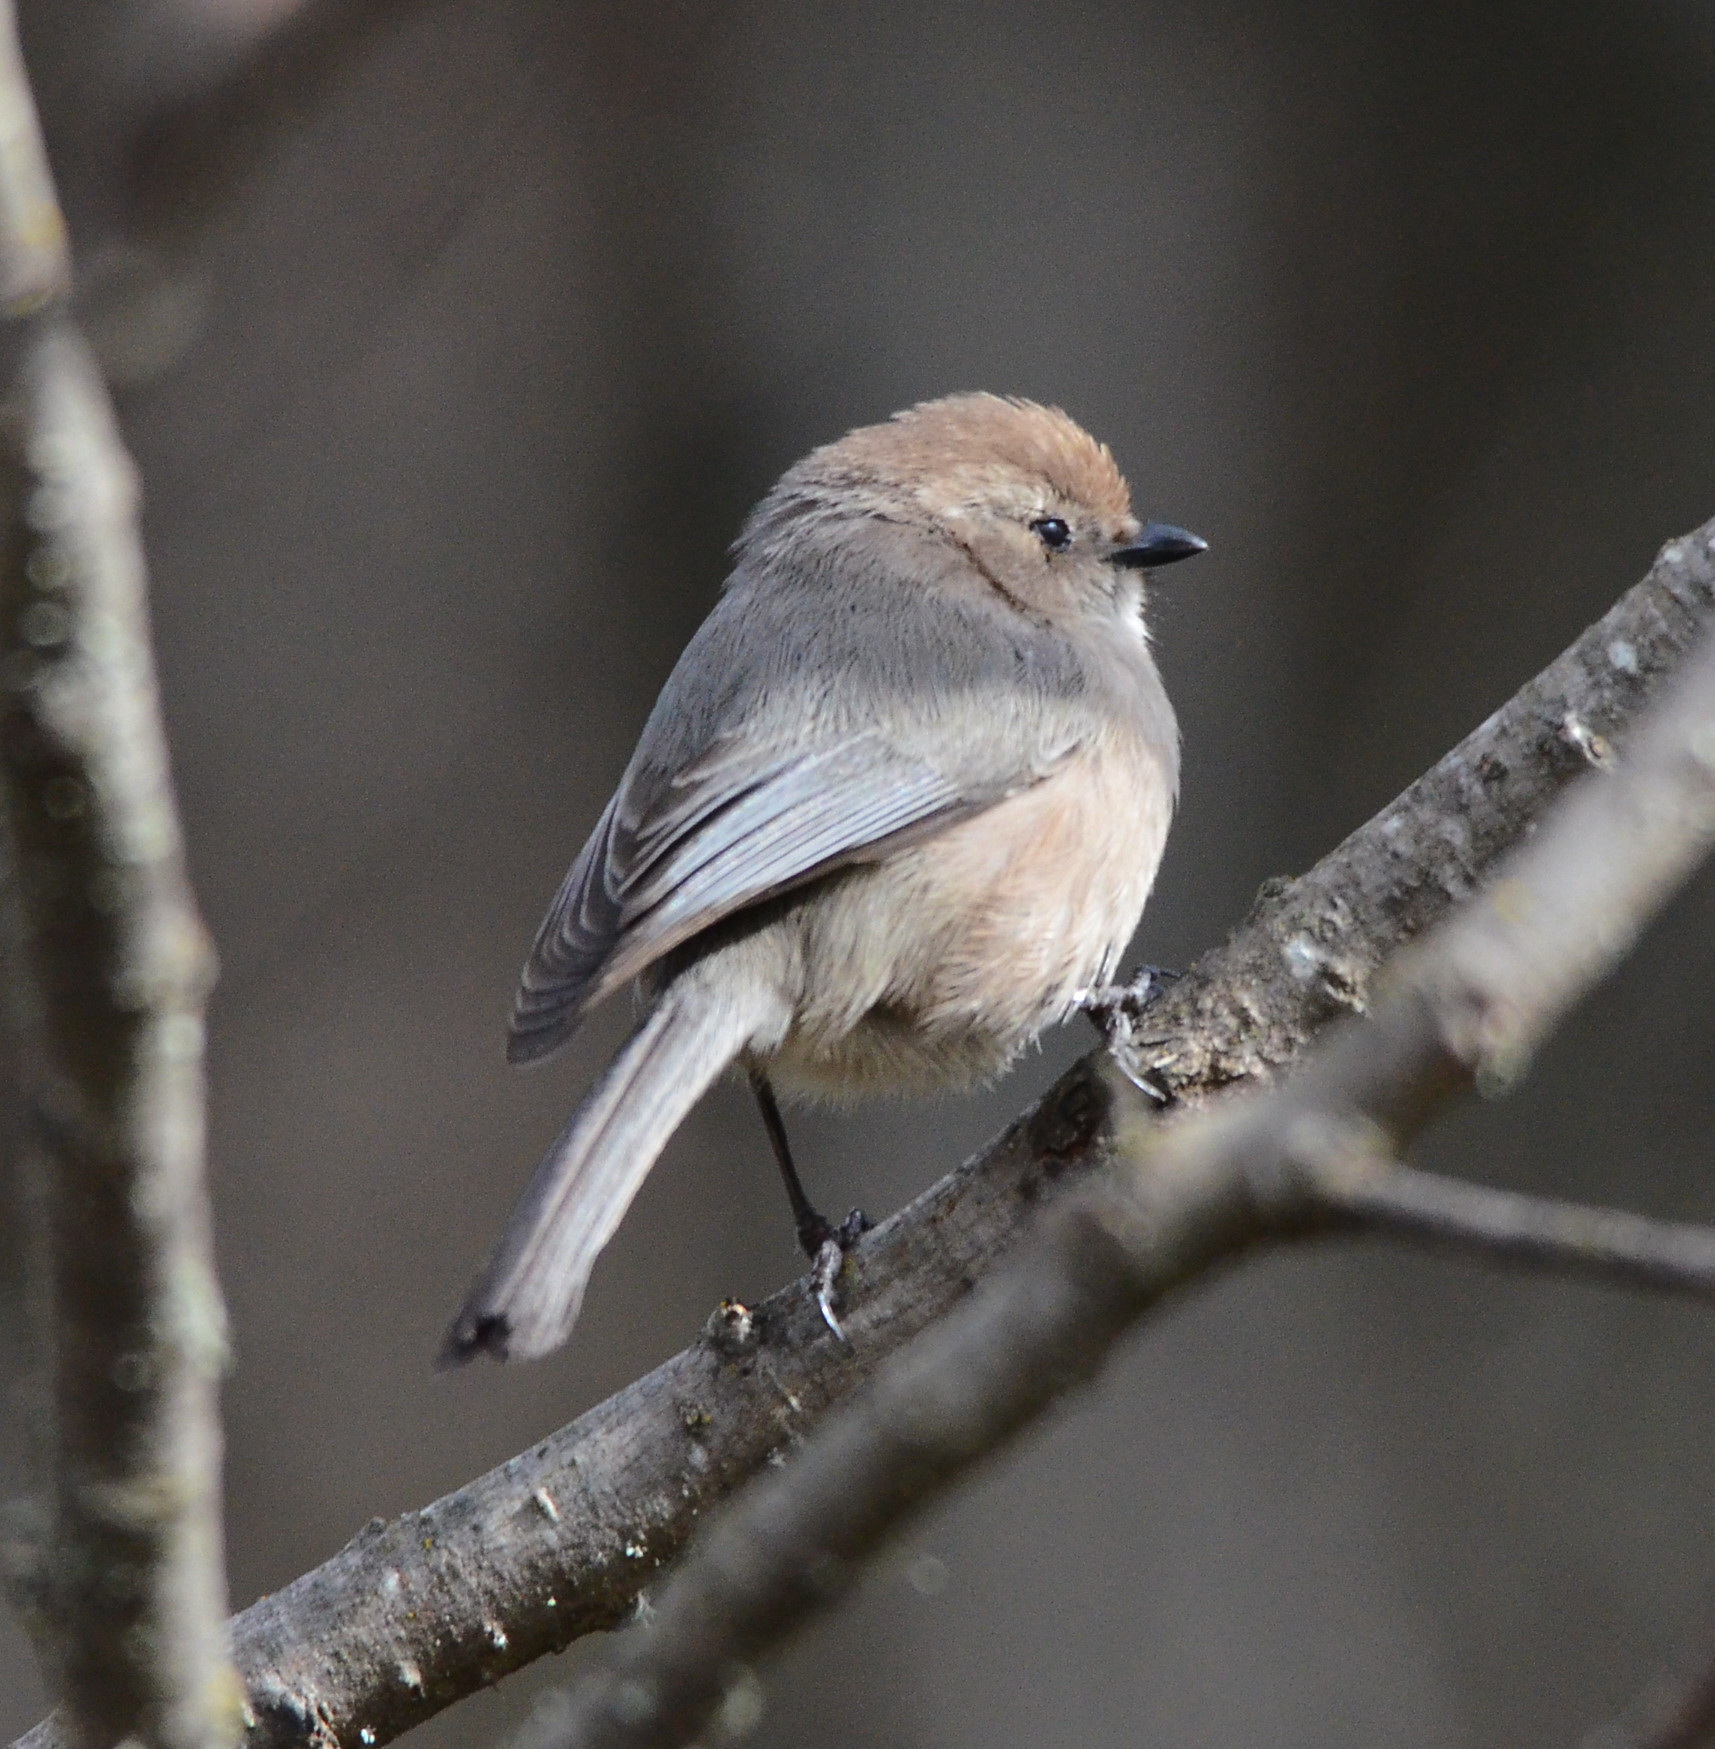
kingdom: Animalia
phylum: Chordata
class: Aves
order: Passeriformes
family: Aegithalidae
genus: Psaltriparus
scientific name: Psaltriparus minimus
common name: American bushtit
